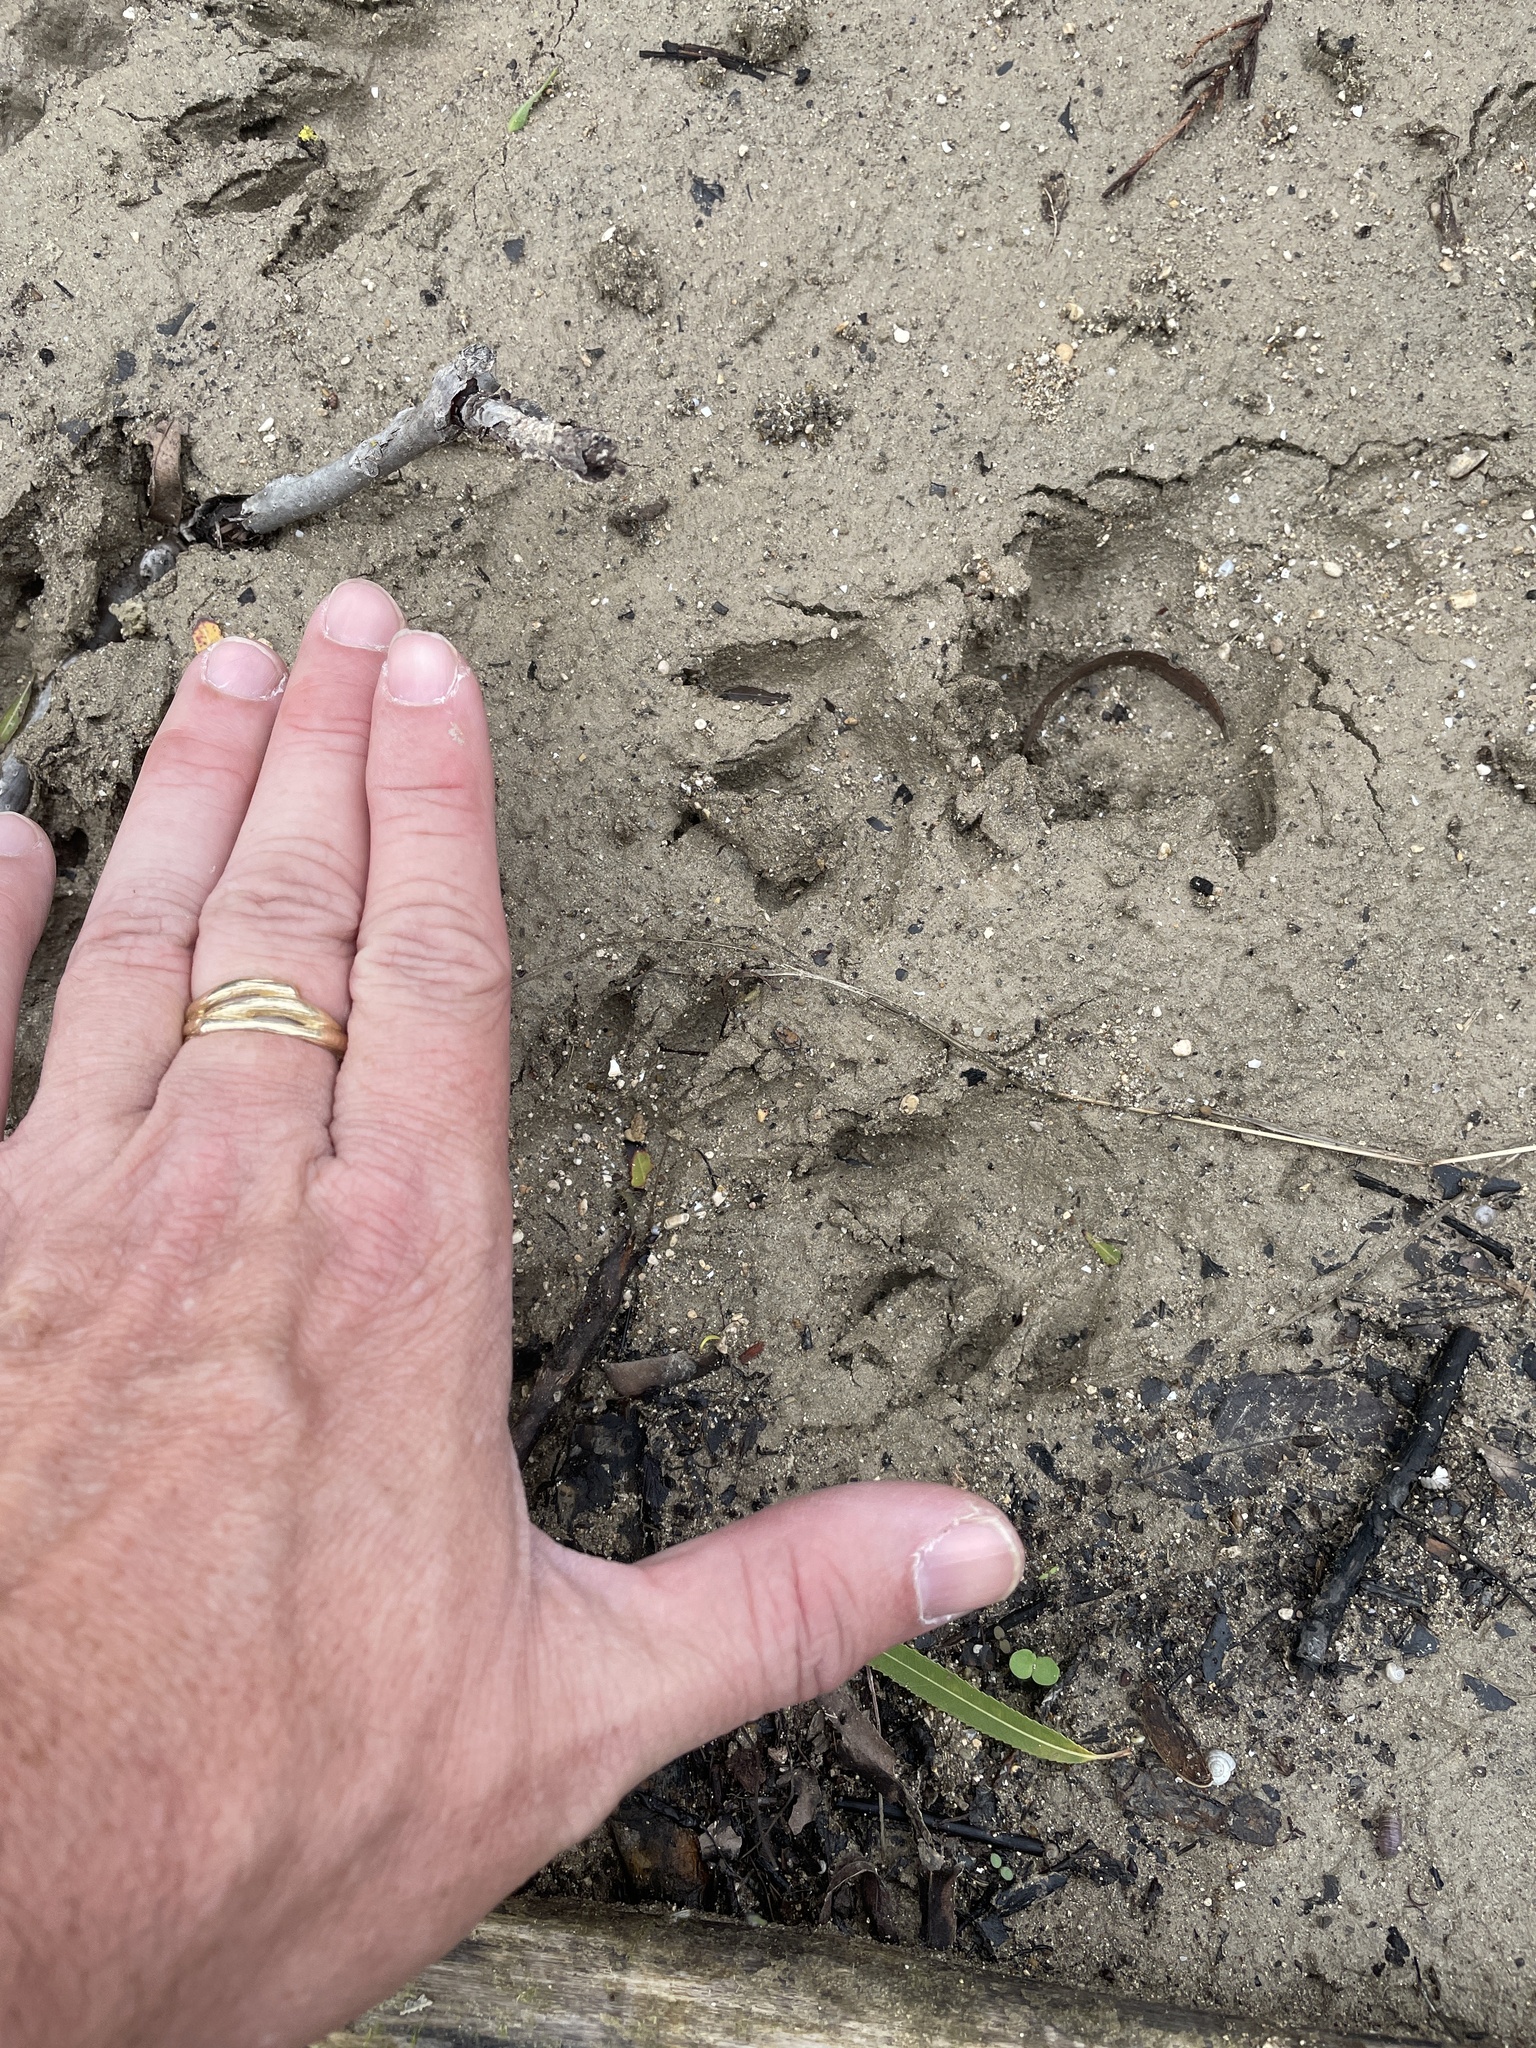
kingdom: Animalia
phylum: Chordata
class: Mammalia
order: Carnivora
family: Procyonidae
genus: Procyon
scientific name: Procyon lotor
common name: Raccoon
